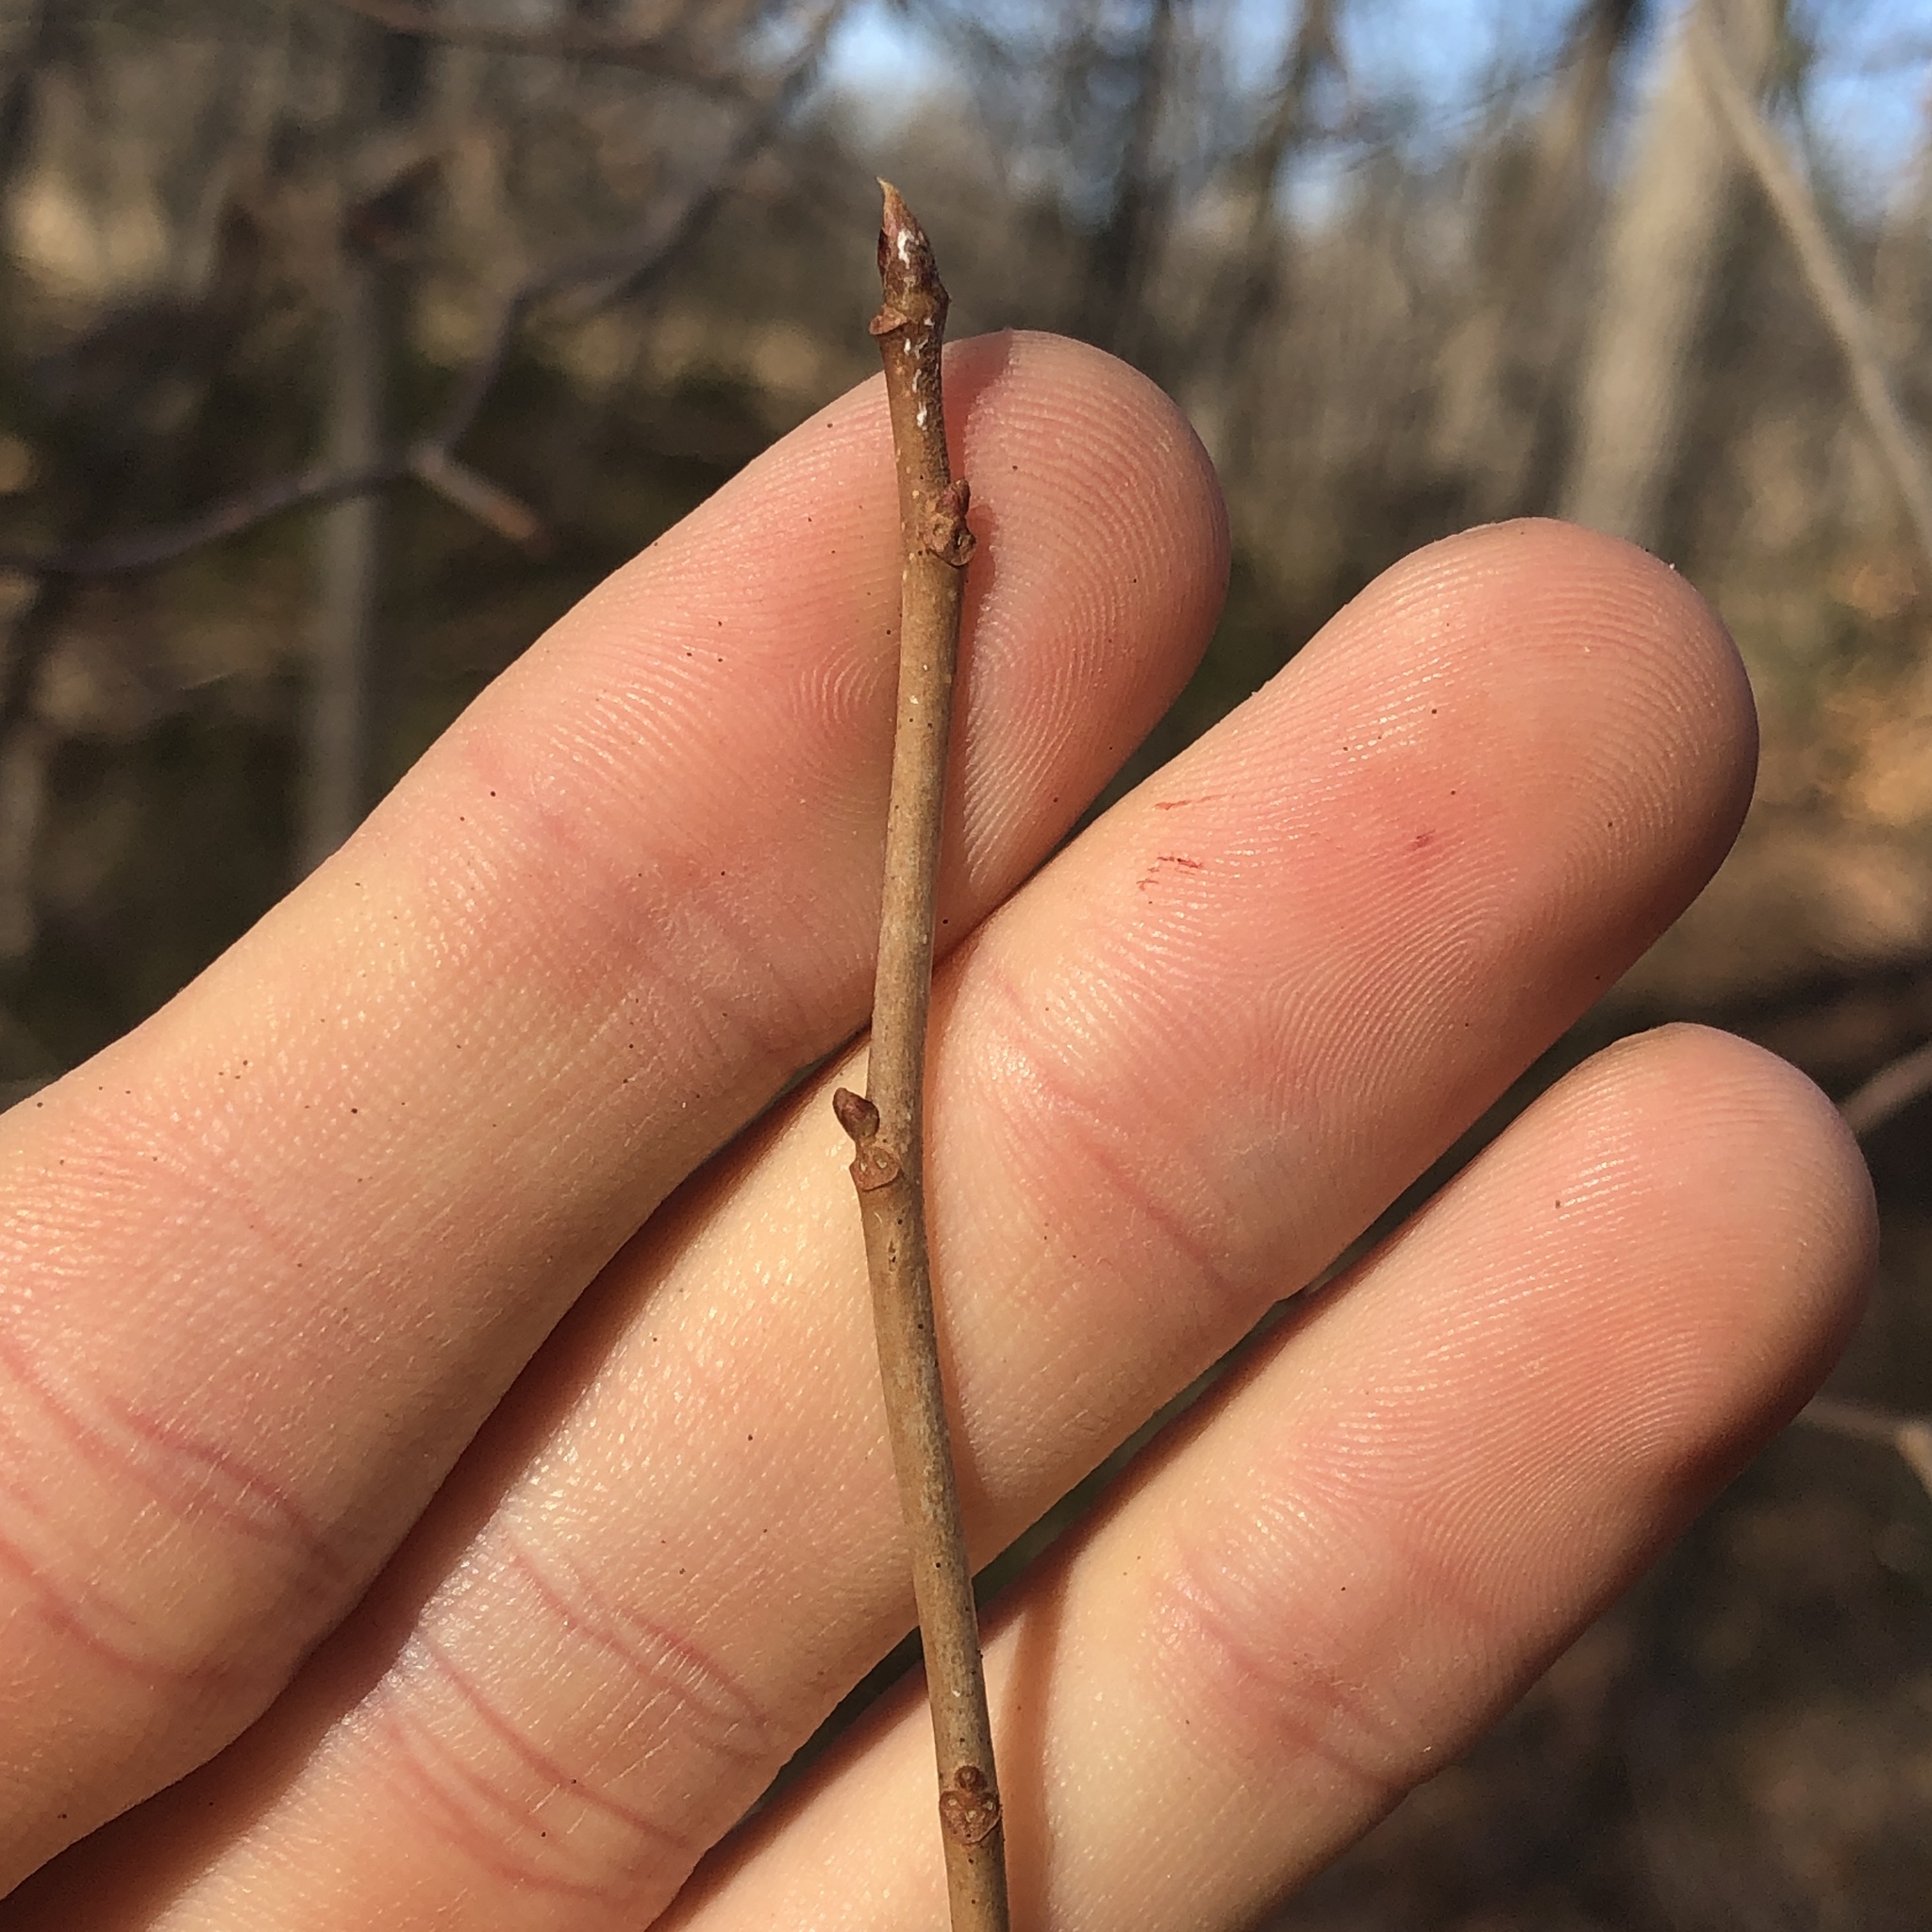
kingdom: Plantae
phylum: Tracheophyta
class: Magnoliopsida
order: Cornales
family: Nyssaceae
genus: Nyssa
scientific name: Nyssa sylvatica
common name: Black tupelo
